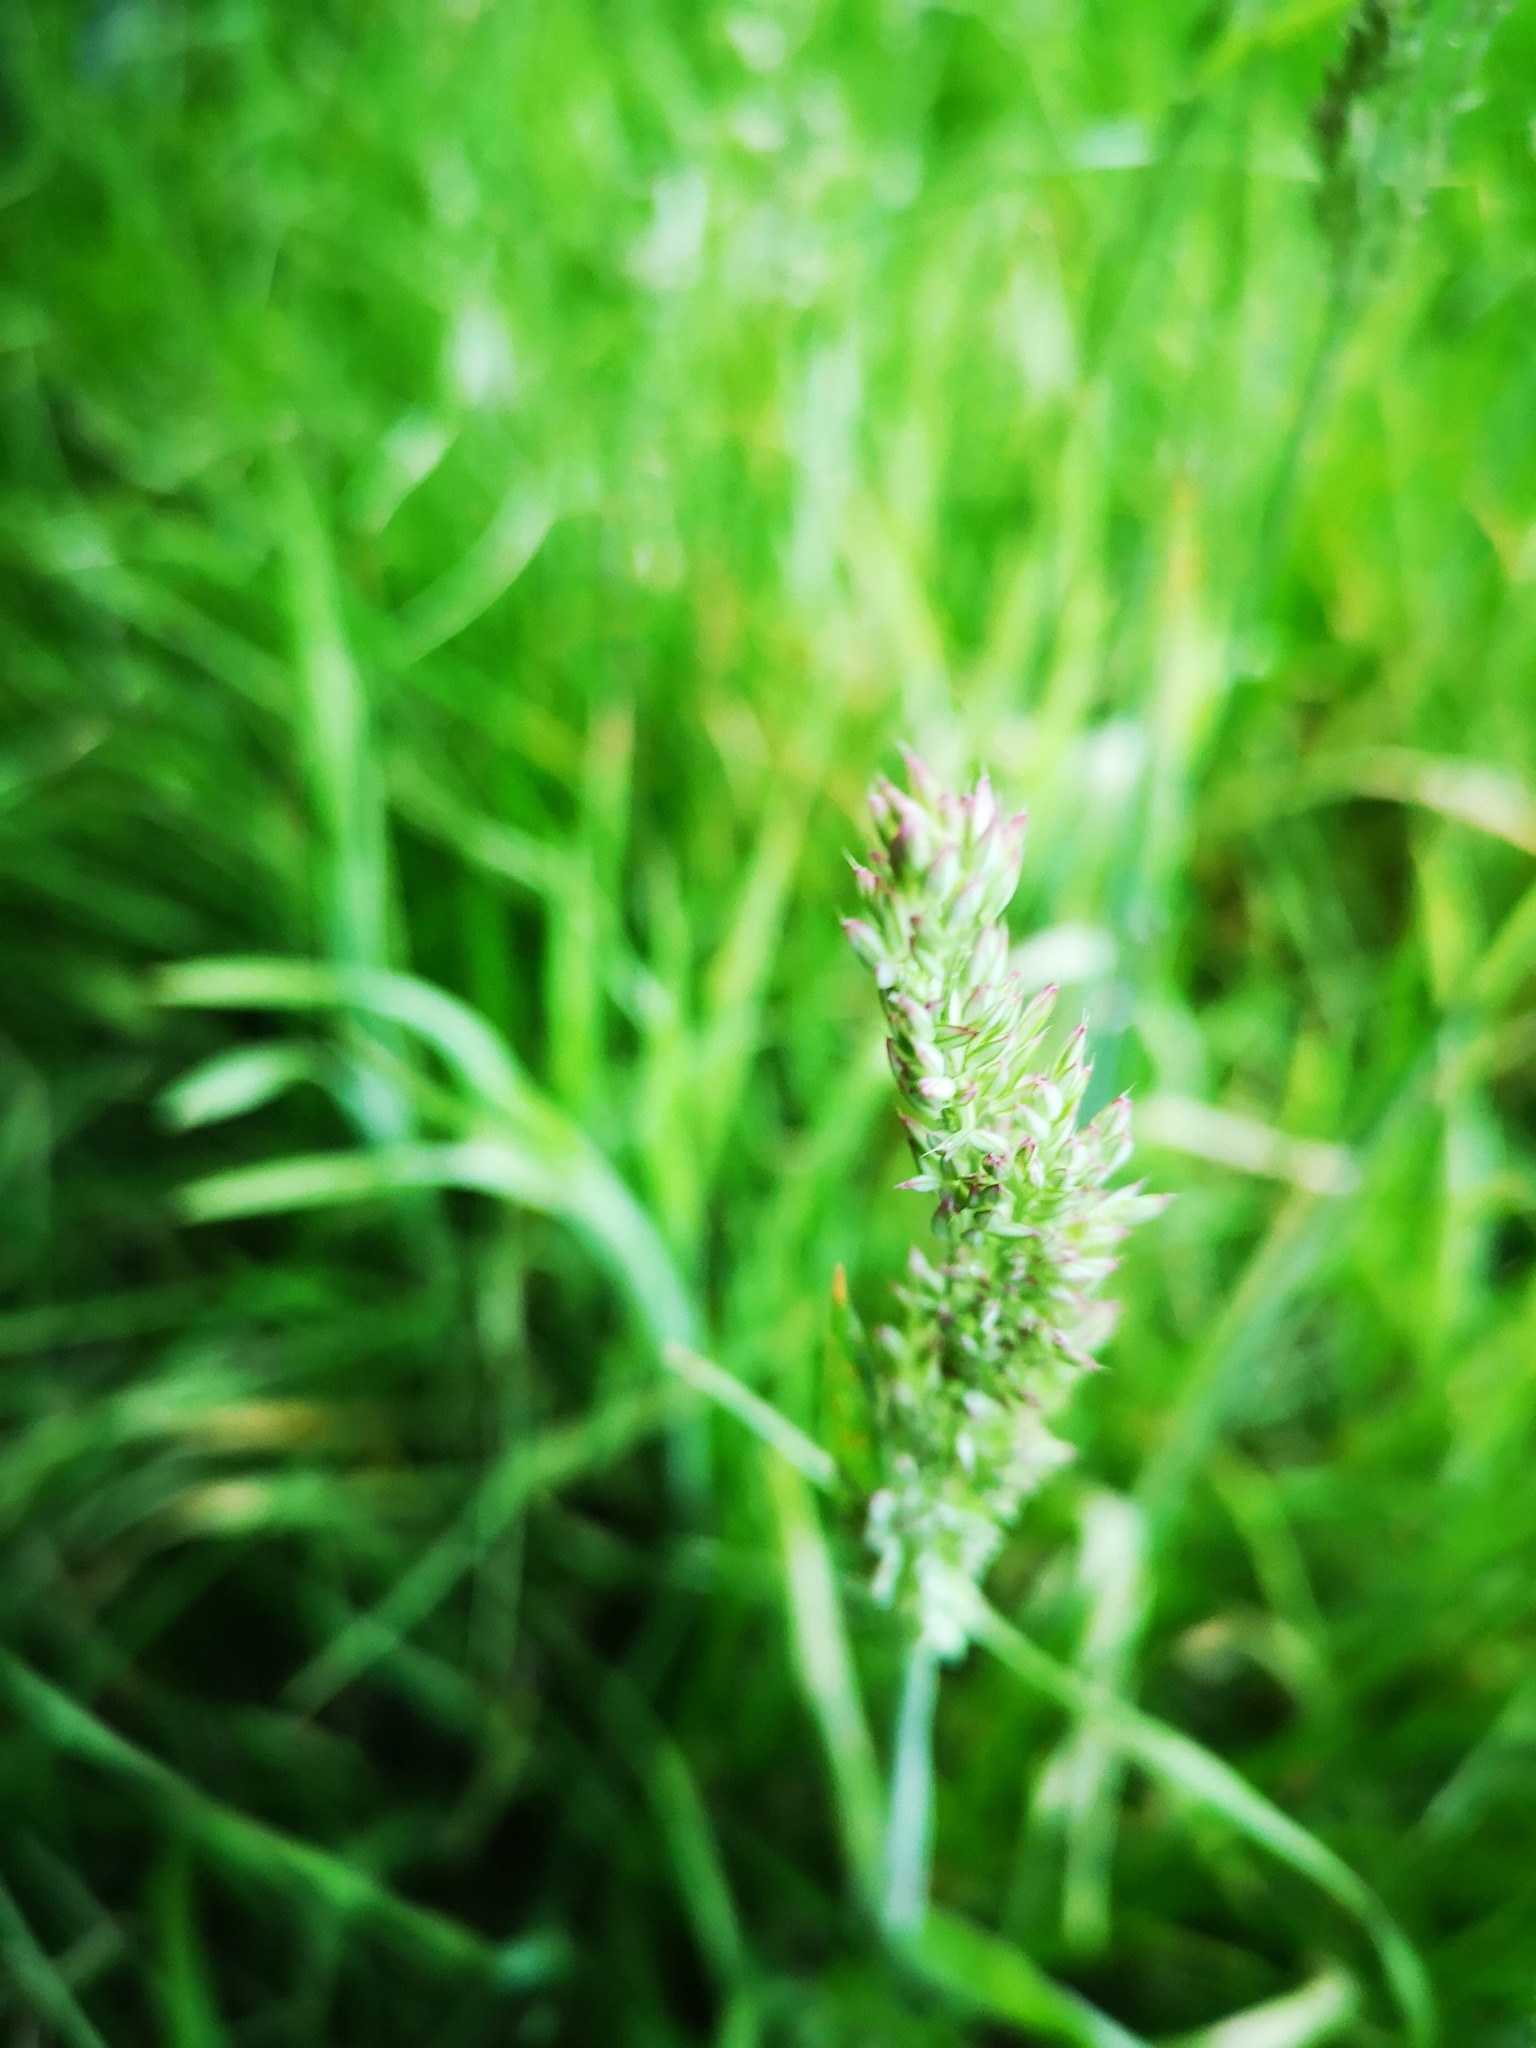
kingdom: Plantae
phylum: Tracheophyta
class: Liliopsida
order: Poales
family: Poaceae
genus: Holcus
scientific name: Holcus lanatus
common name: Yorkshire-fog
